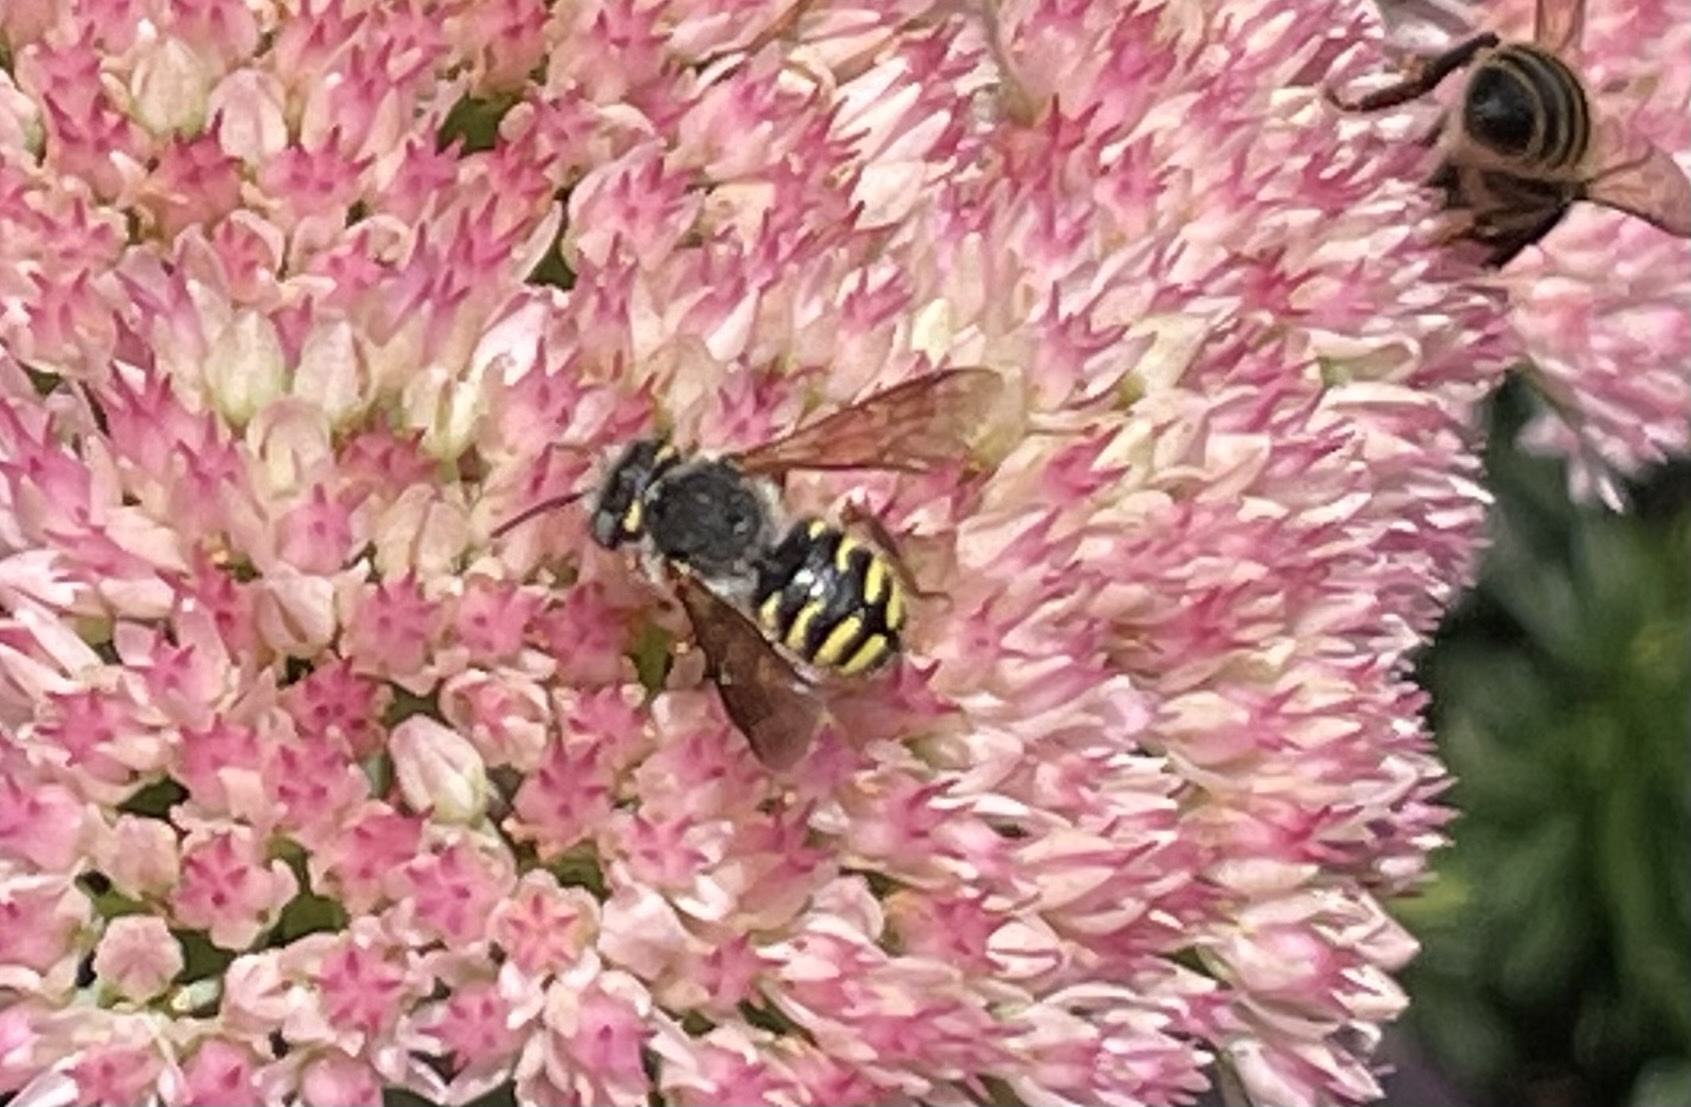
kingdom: Animalia
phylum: Arthropoda
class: Insecta
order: Hymenoptera
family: Megachilidae
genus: Anthidium
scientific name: Anthidium oblongatum
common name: Oblong wool carder bee
